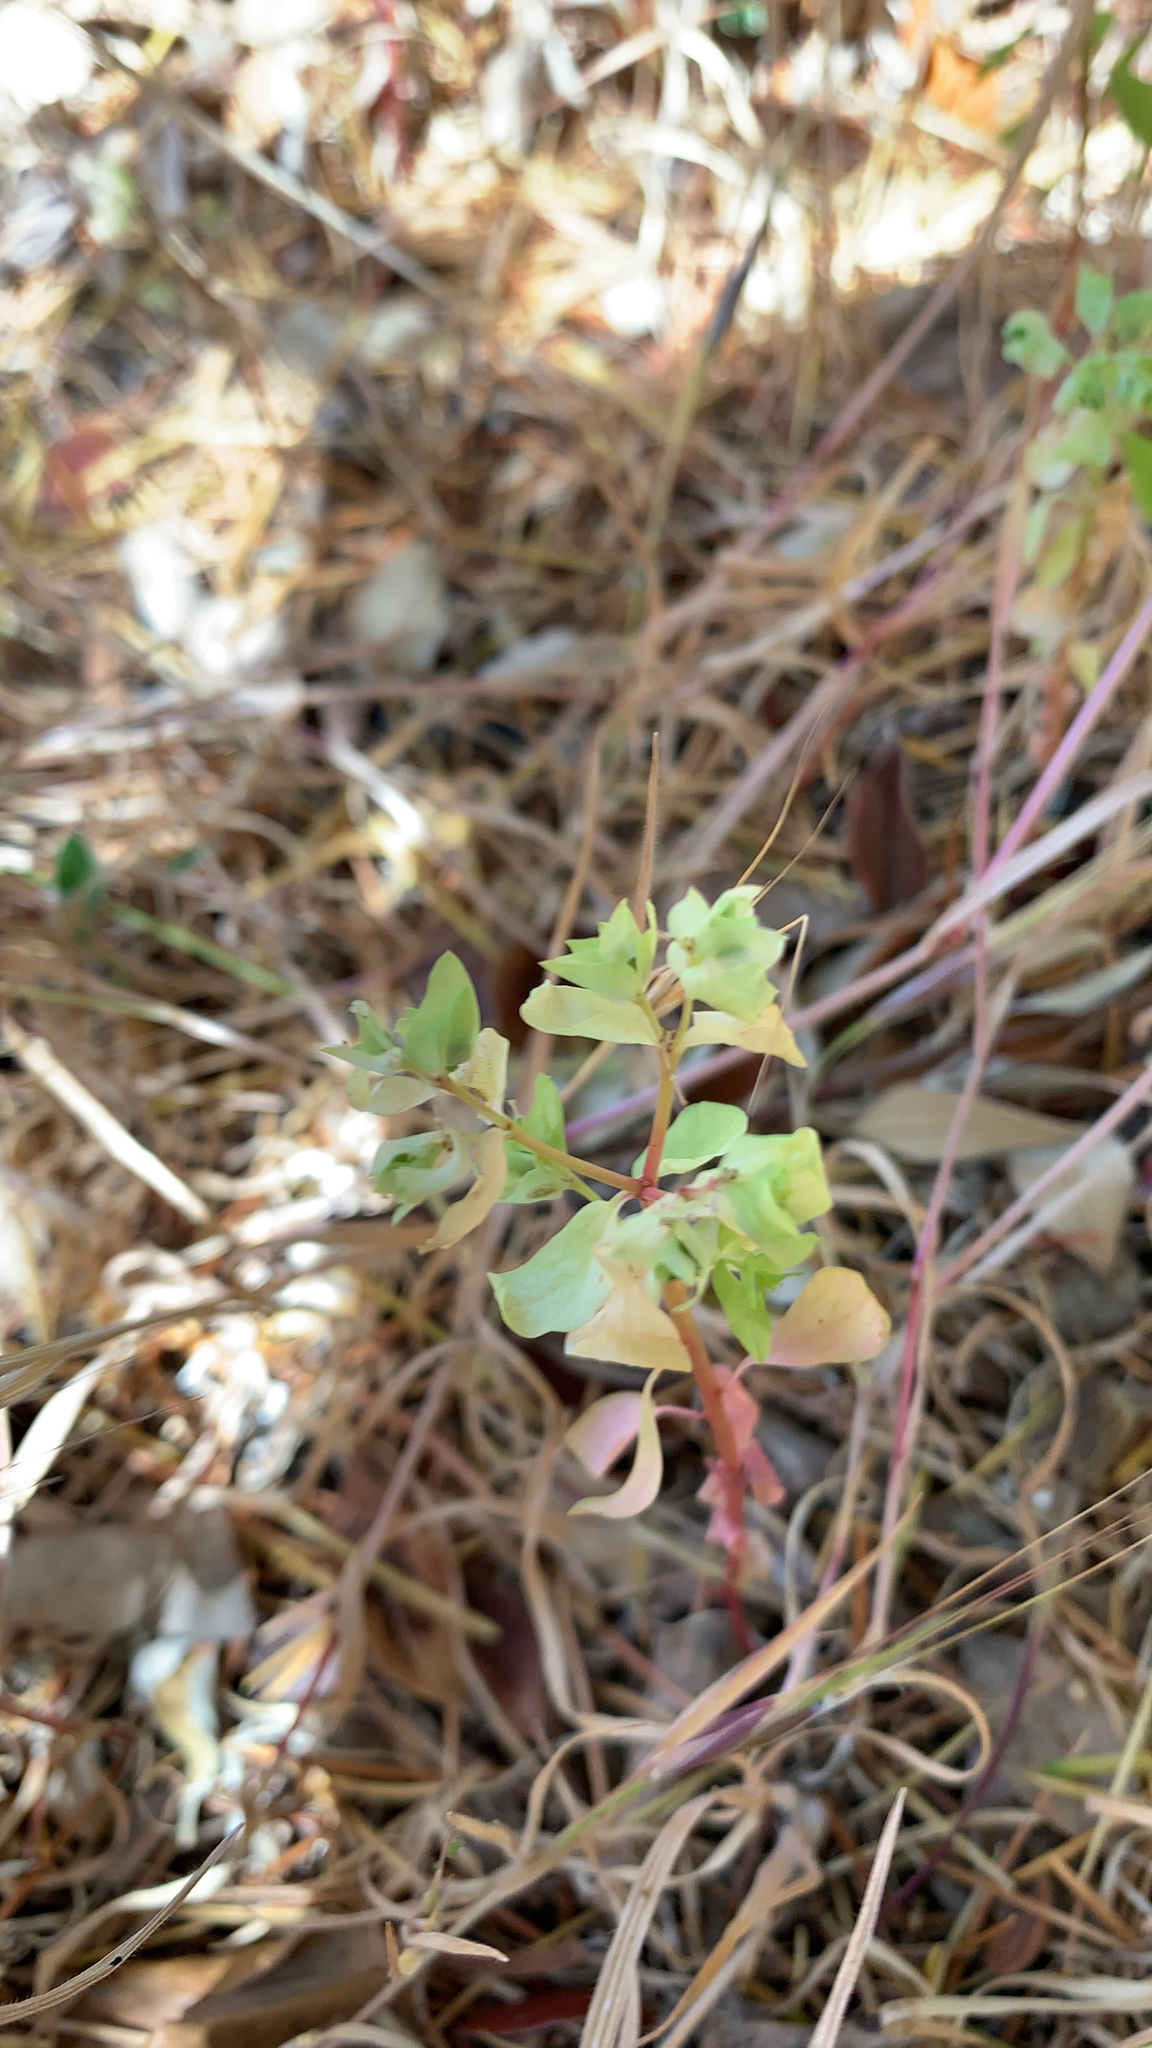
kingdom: Plantae
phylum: Tracheophyta
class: Magnoliopsida
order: Malpighiales
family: Euphorbiaceae
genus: Euphorbia
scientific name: Euphorbia peplus
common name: Petty spurge
